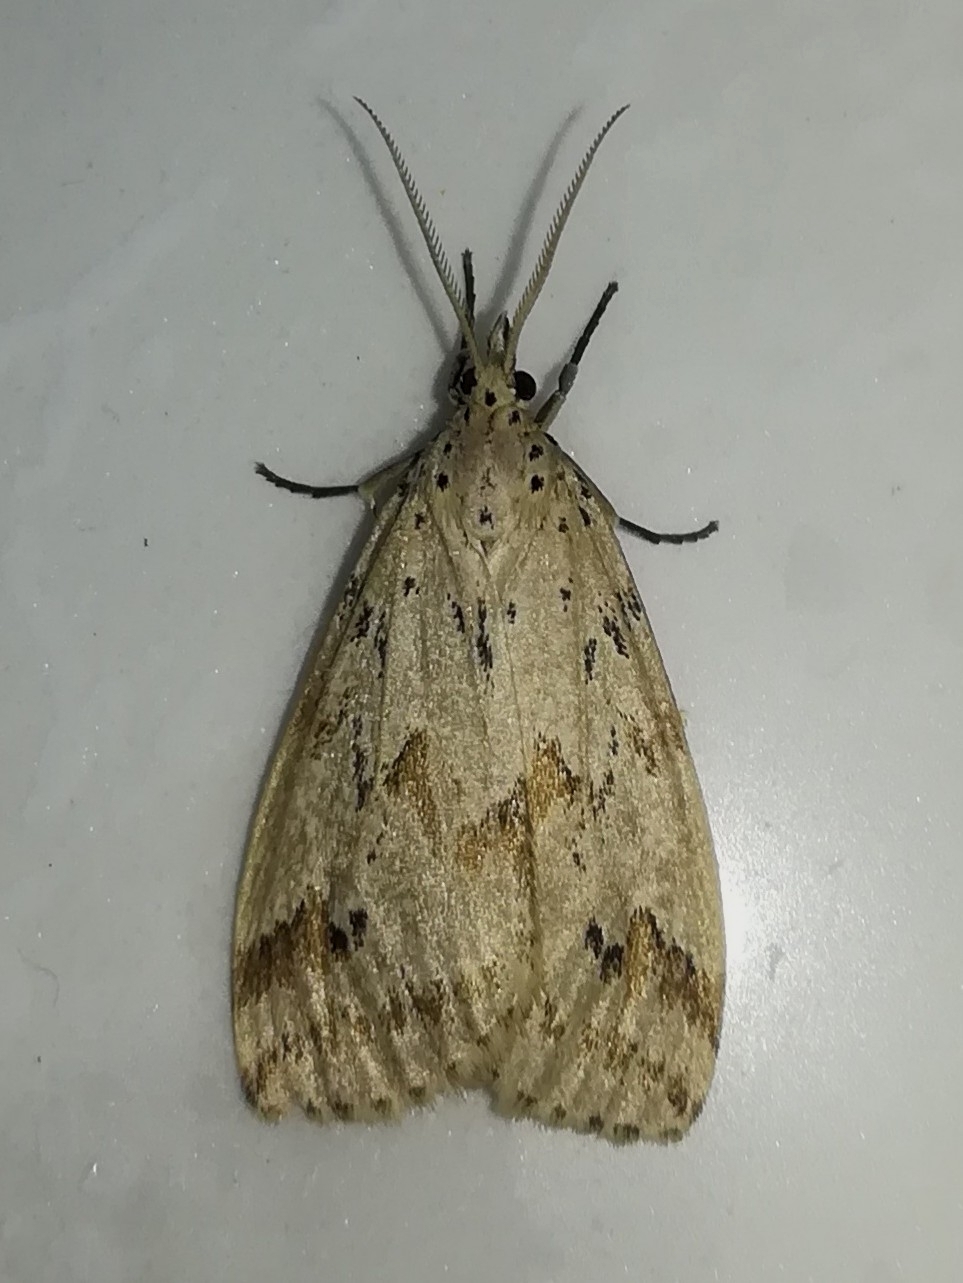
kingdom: Animalia
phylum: Arthropoda
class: Insecta
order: Lepidoptera
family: Erebidae
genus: Galtara
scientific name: Galtara rostrata
